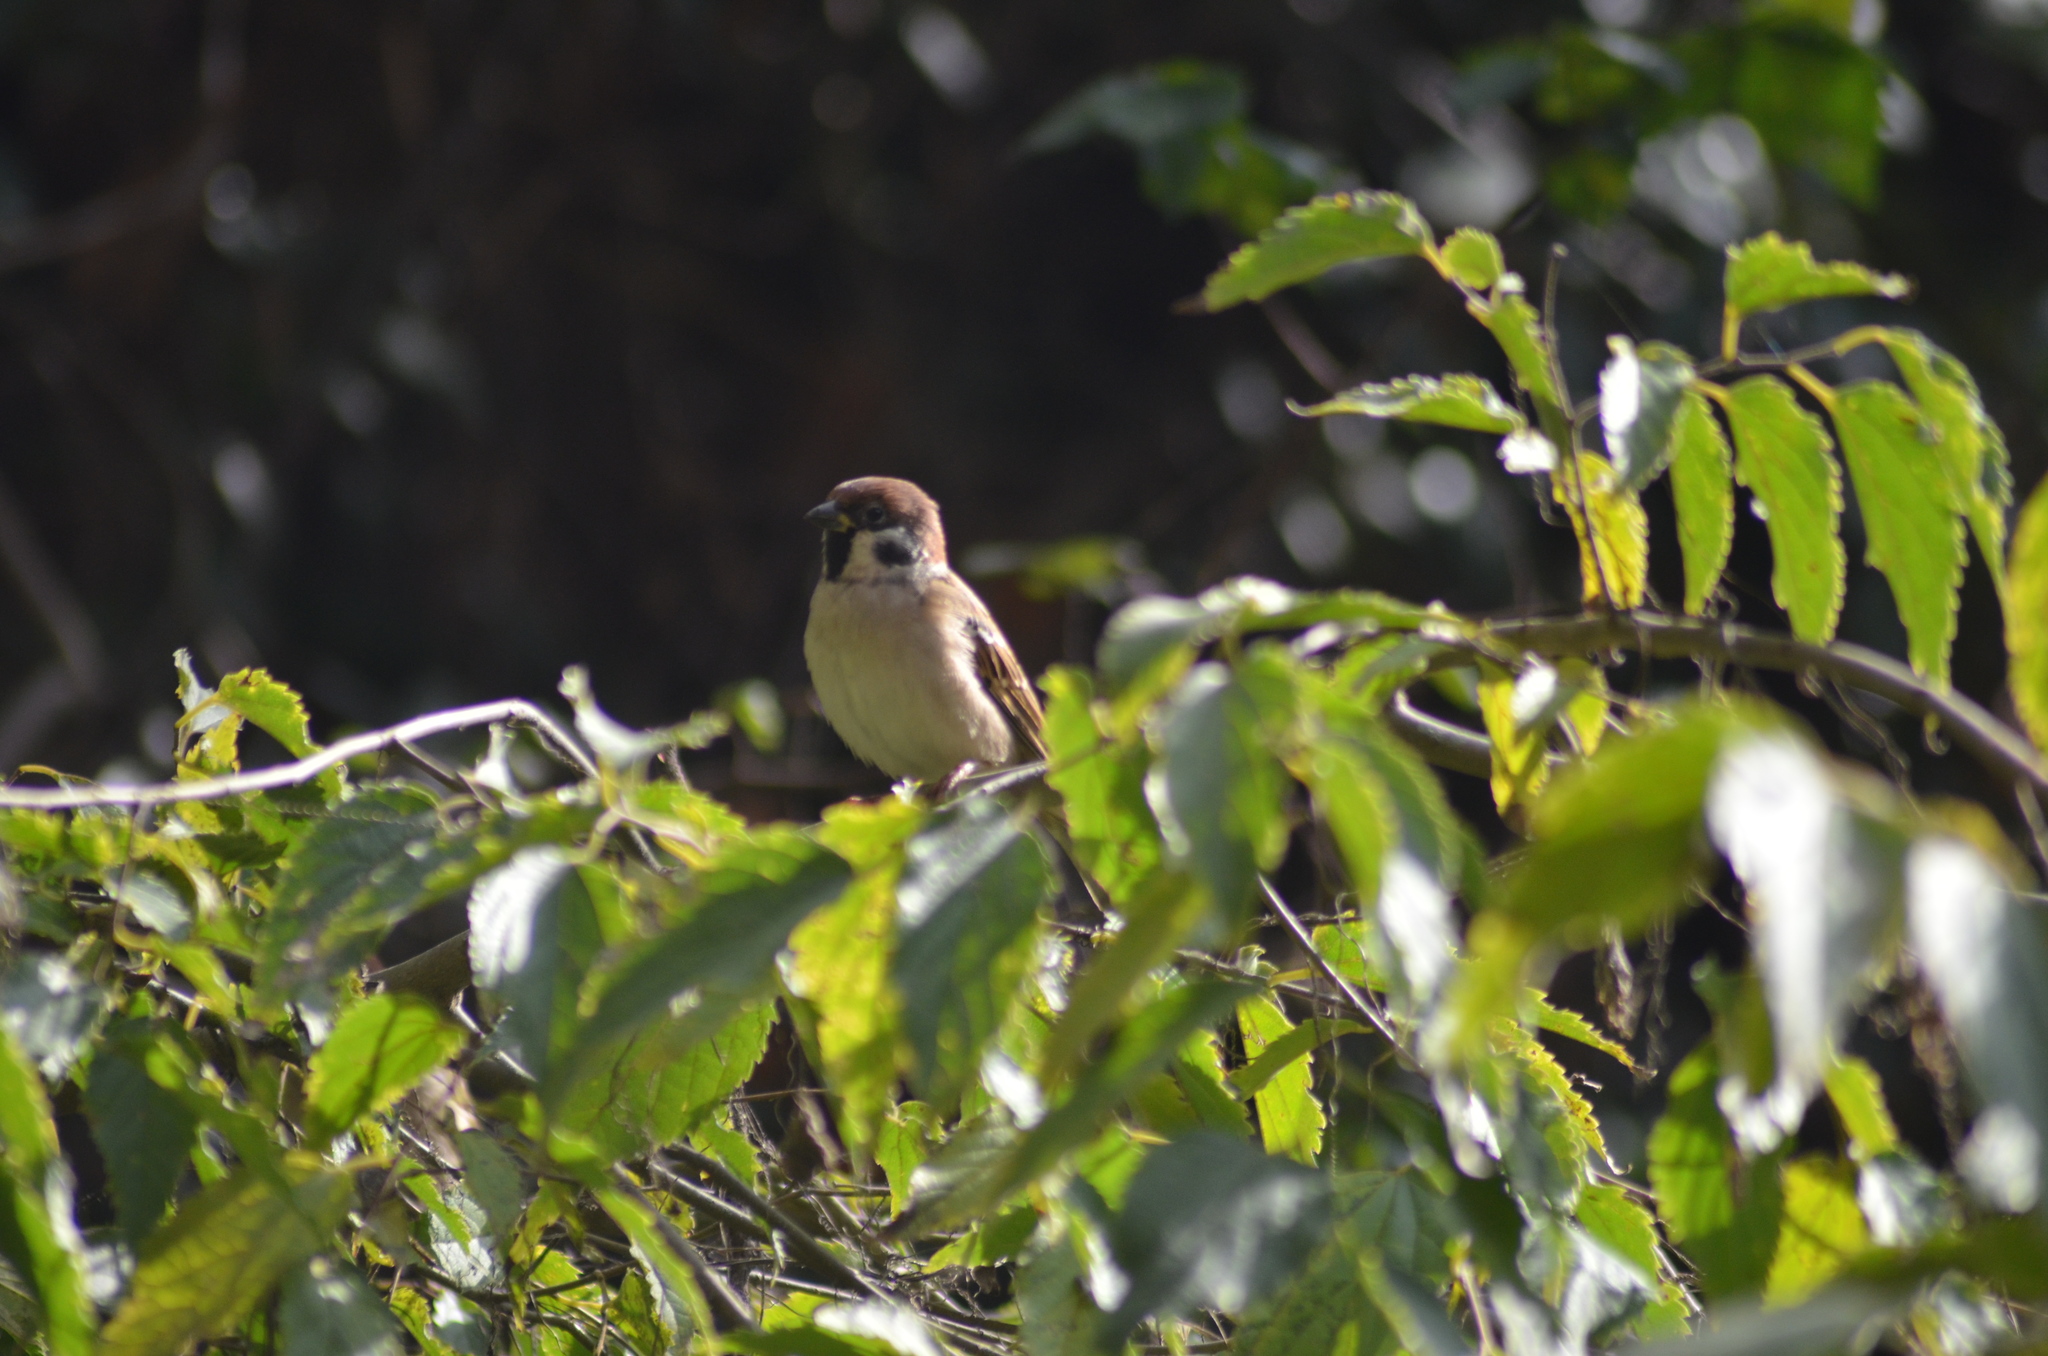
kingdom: Animalia
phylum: Chordata
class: Aves
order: Passeriformes
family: Passeridae
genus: Passer
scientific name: Passer montanus
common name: Eurasian tree sparrow
